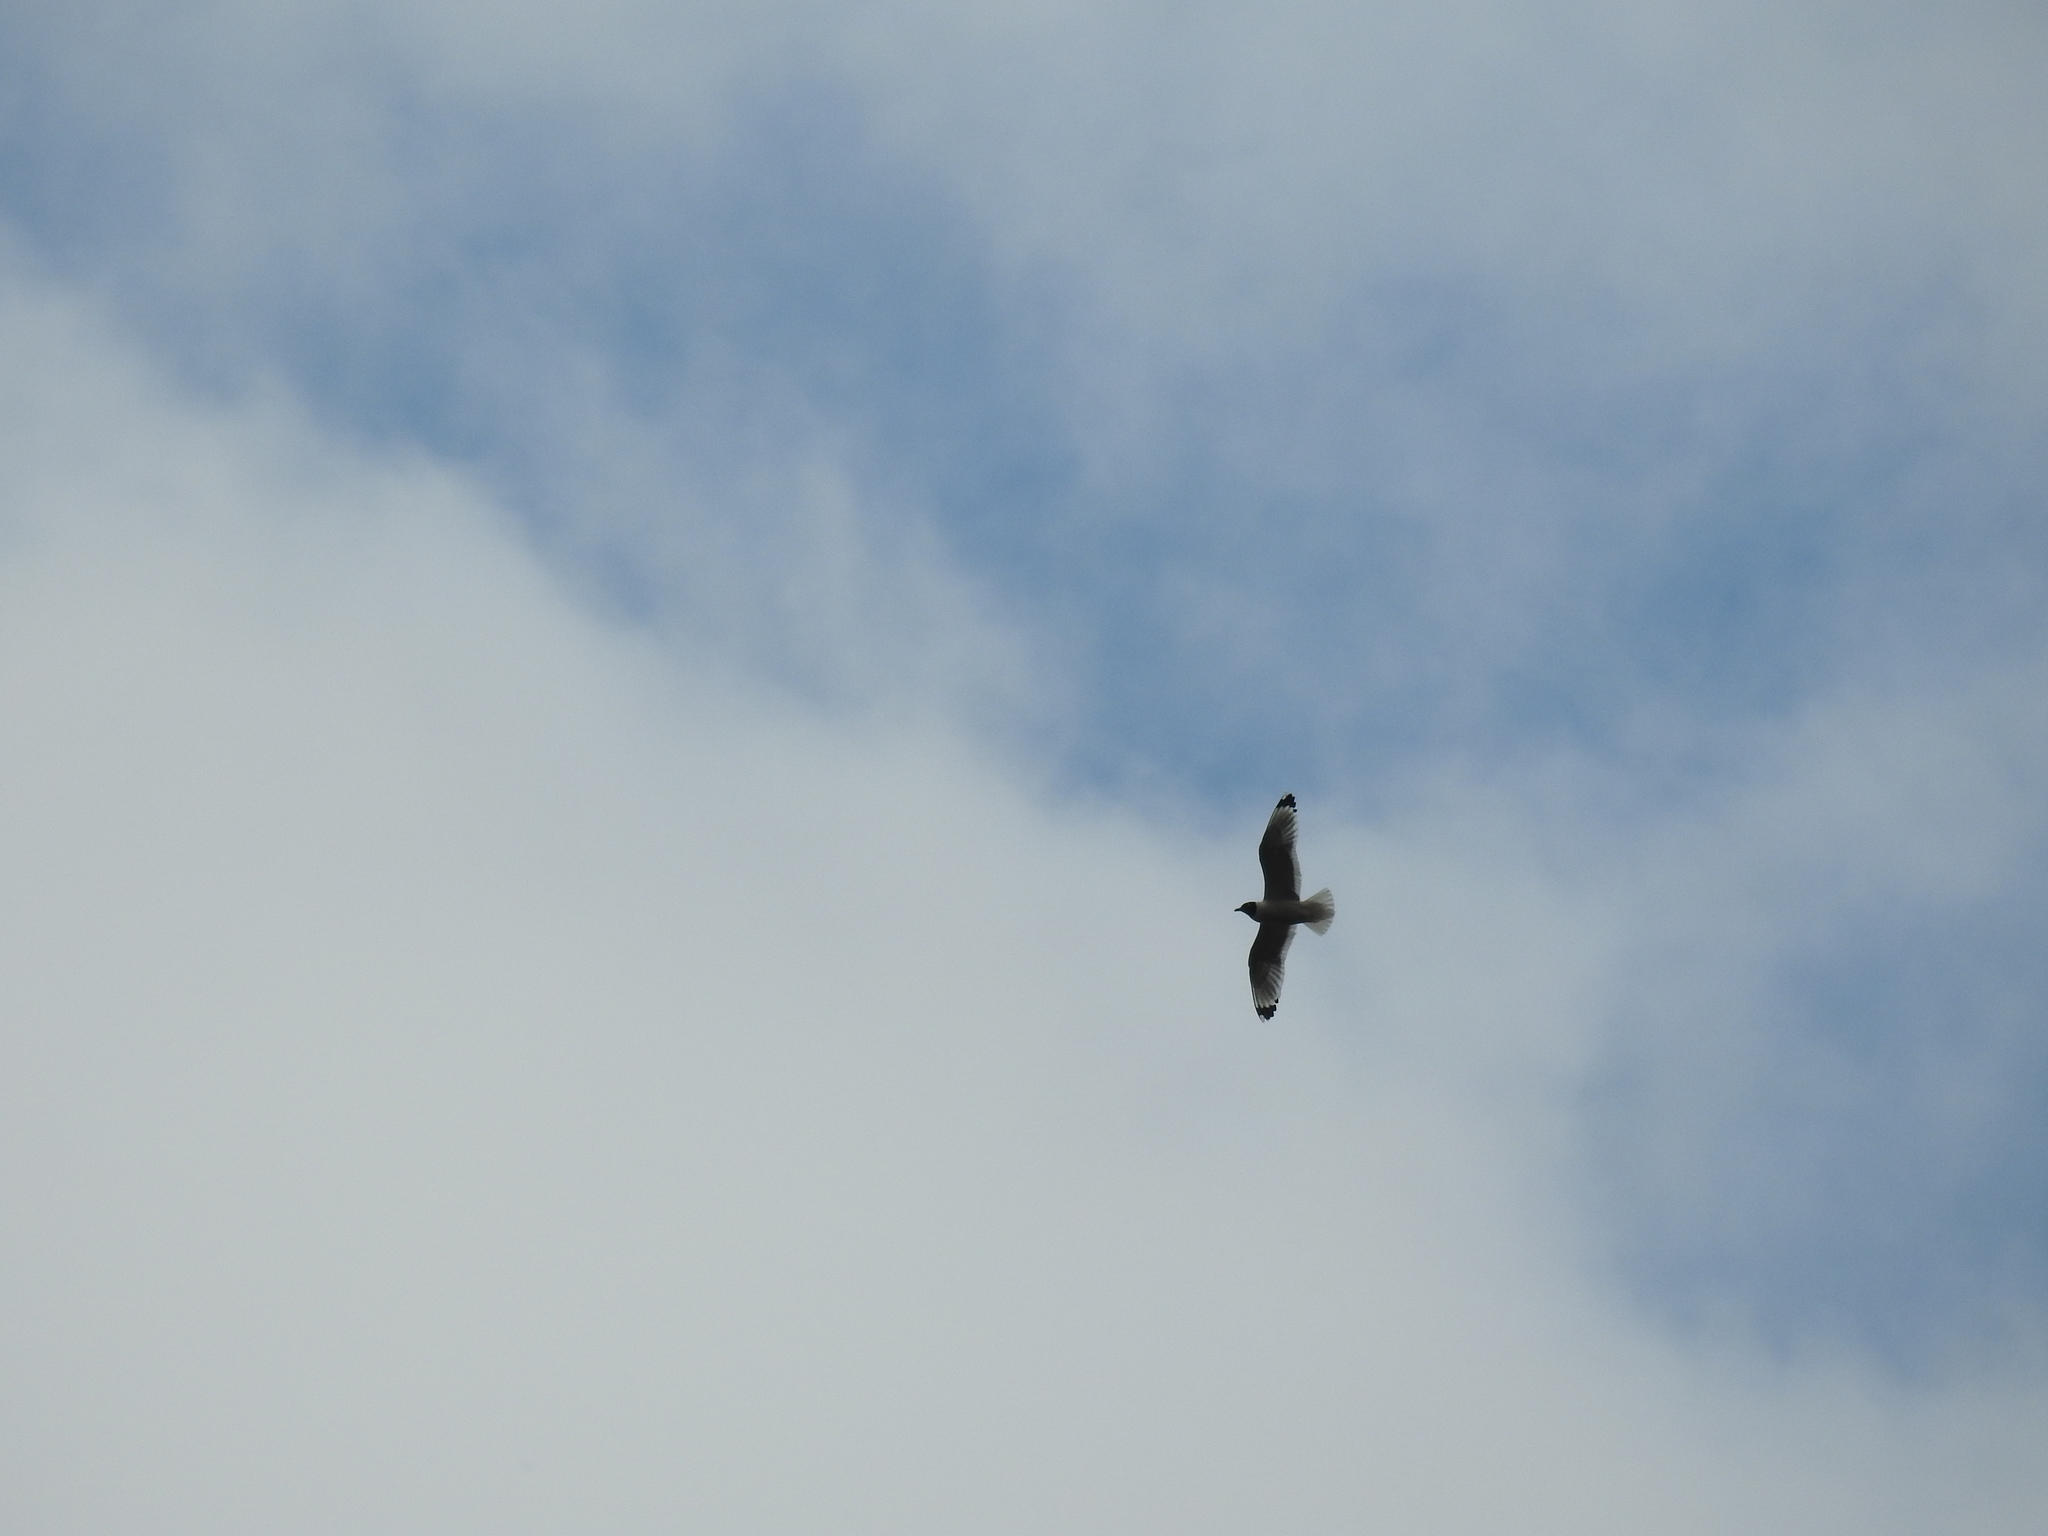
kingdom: Animalia
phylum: Chordata
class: Aves
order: Charadriiformes
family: Laridae
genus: Leucophaeus
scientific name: Leucophaeus pipixcan
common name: Franklin's gull
